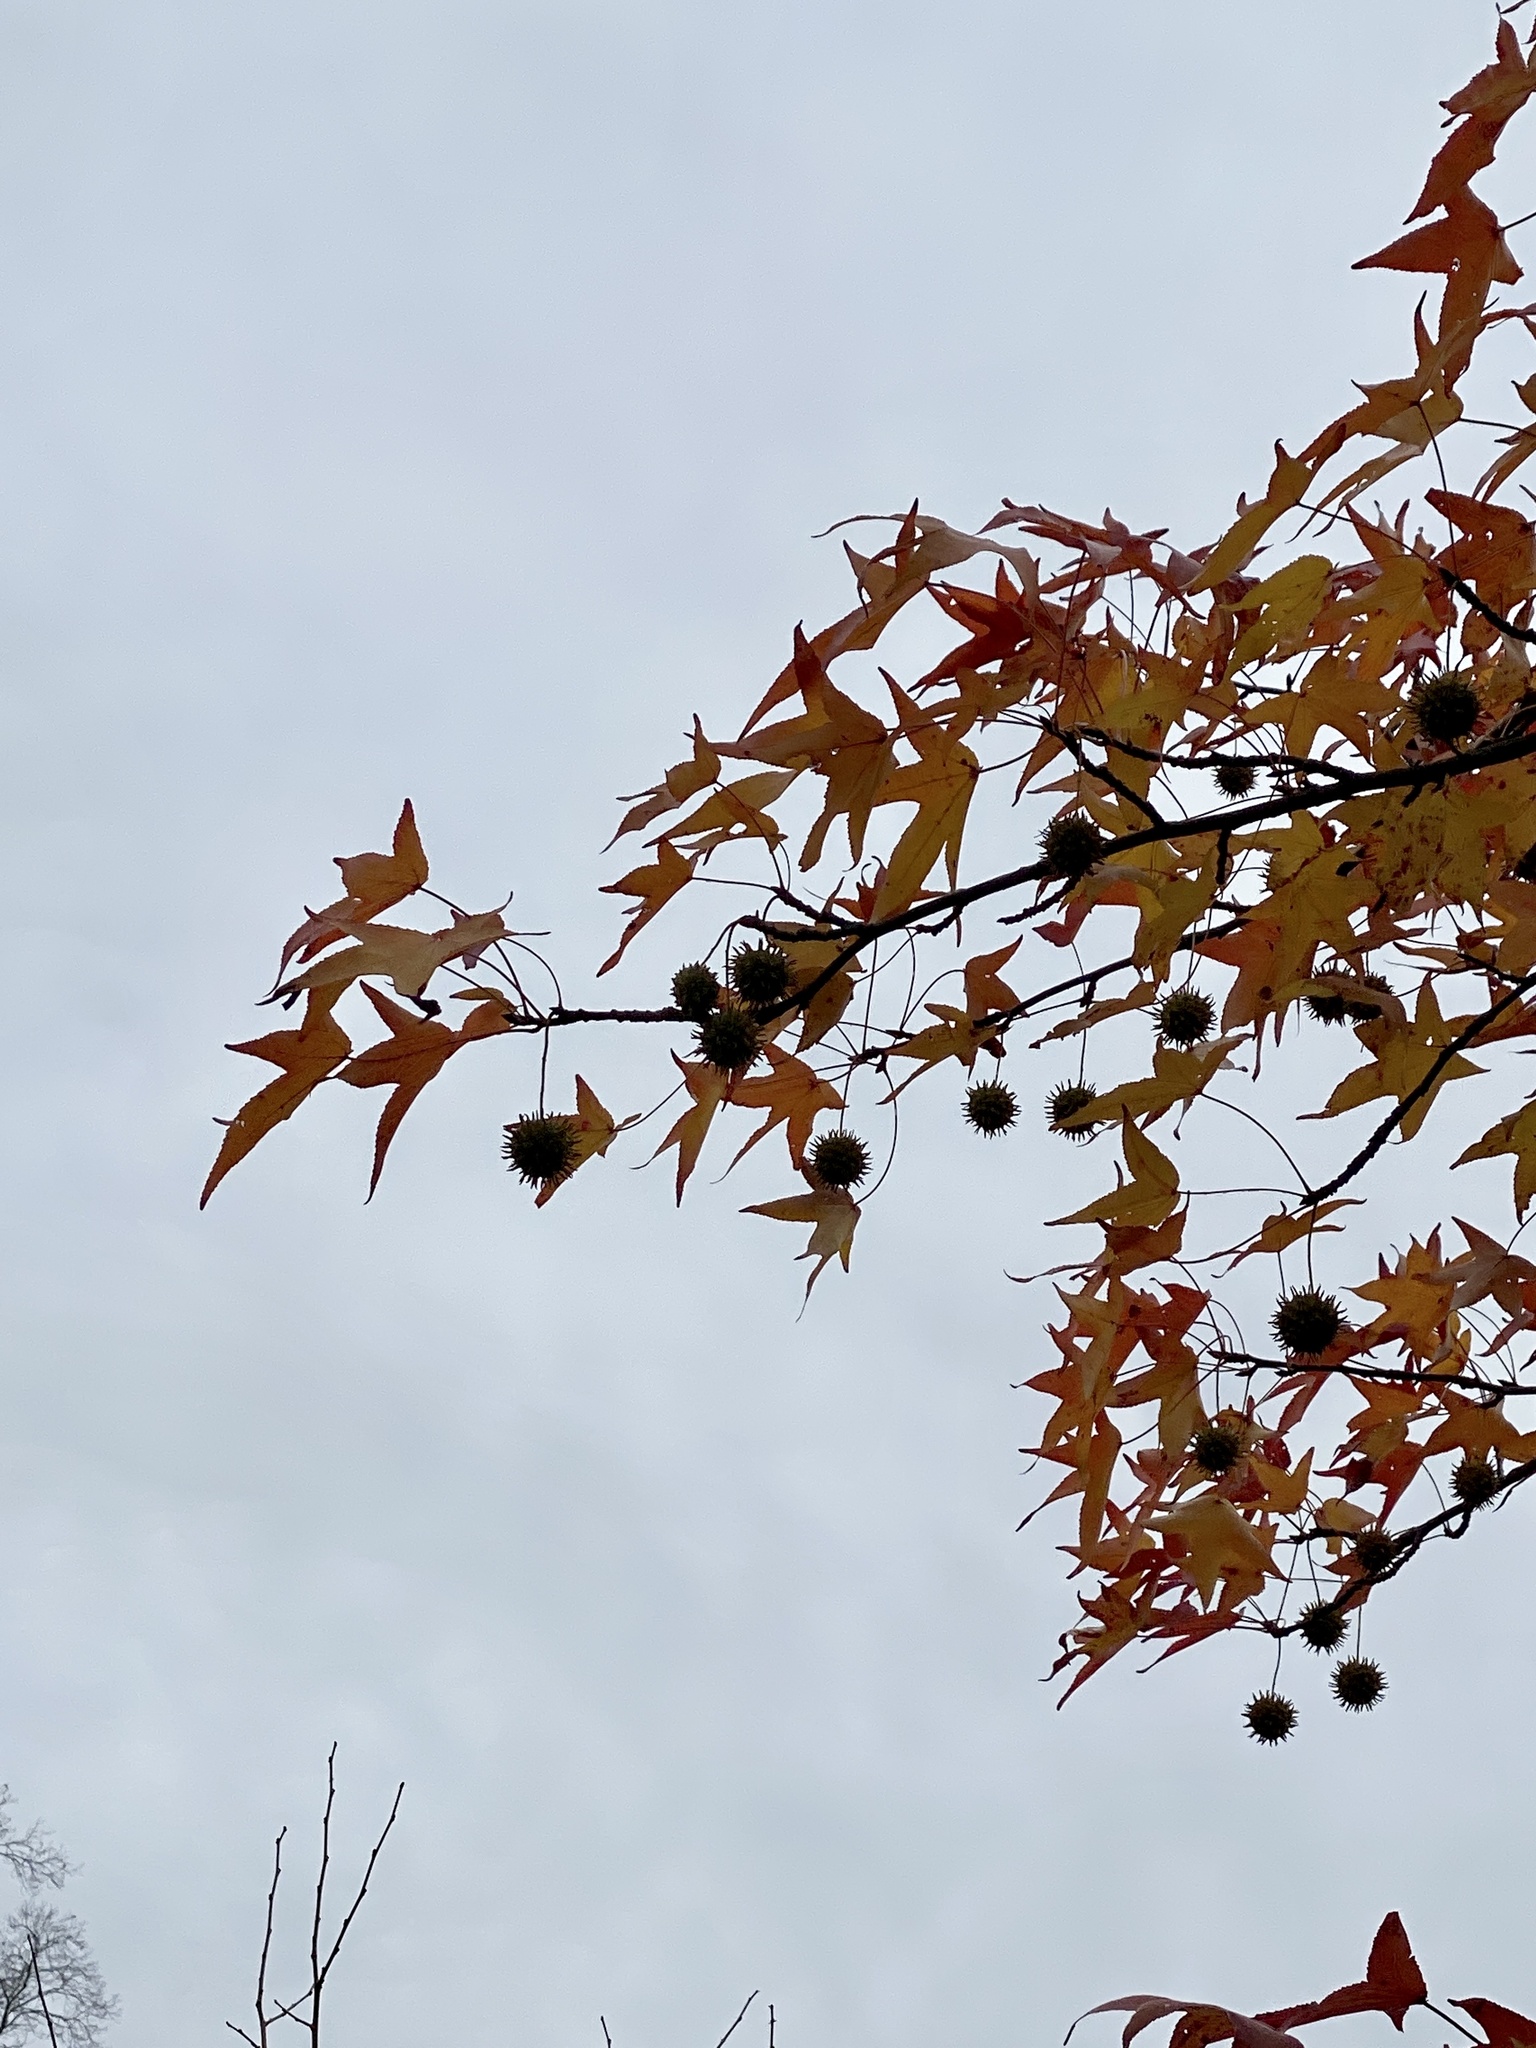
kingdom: Plantae
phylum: Tracheophyta
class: Magnoliopsida
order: Saxifragales
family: Altingiaceae
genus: Liquidambar
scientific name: Liquidambar styraciflua
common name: Sweet gum
